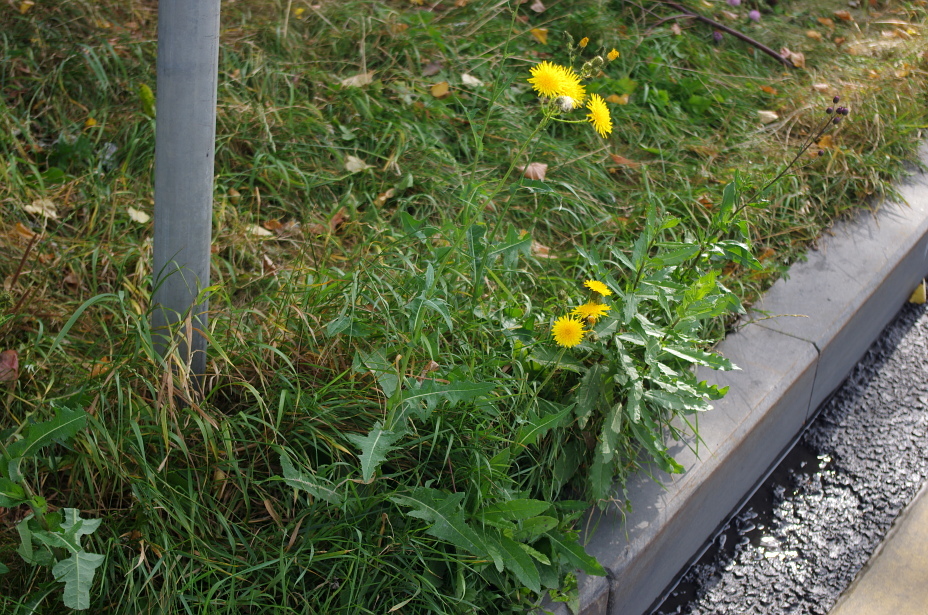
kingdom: Plantae
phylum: Tracheophyta
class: Magnoliopsida
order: Asterales
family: Asteraceae
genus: Sonchus
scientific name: Sonchus arvensis
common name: Perennial sow-thistle
